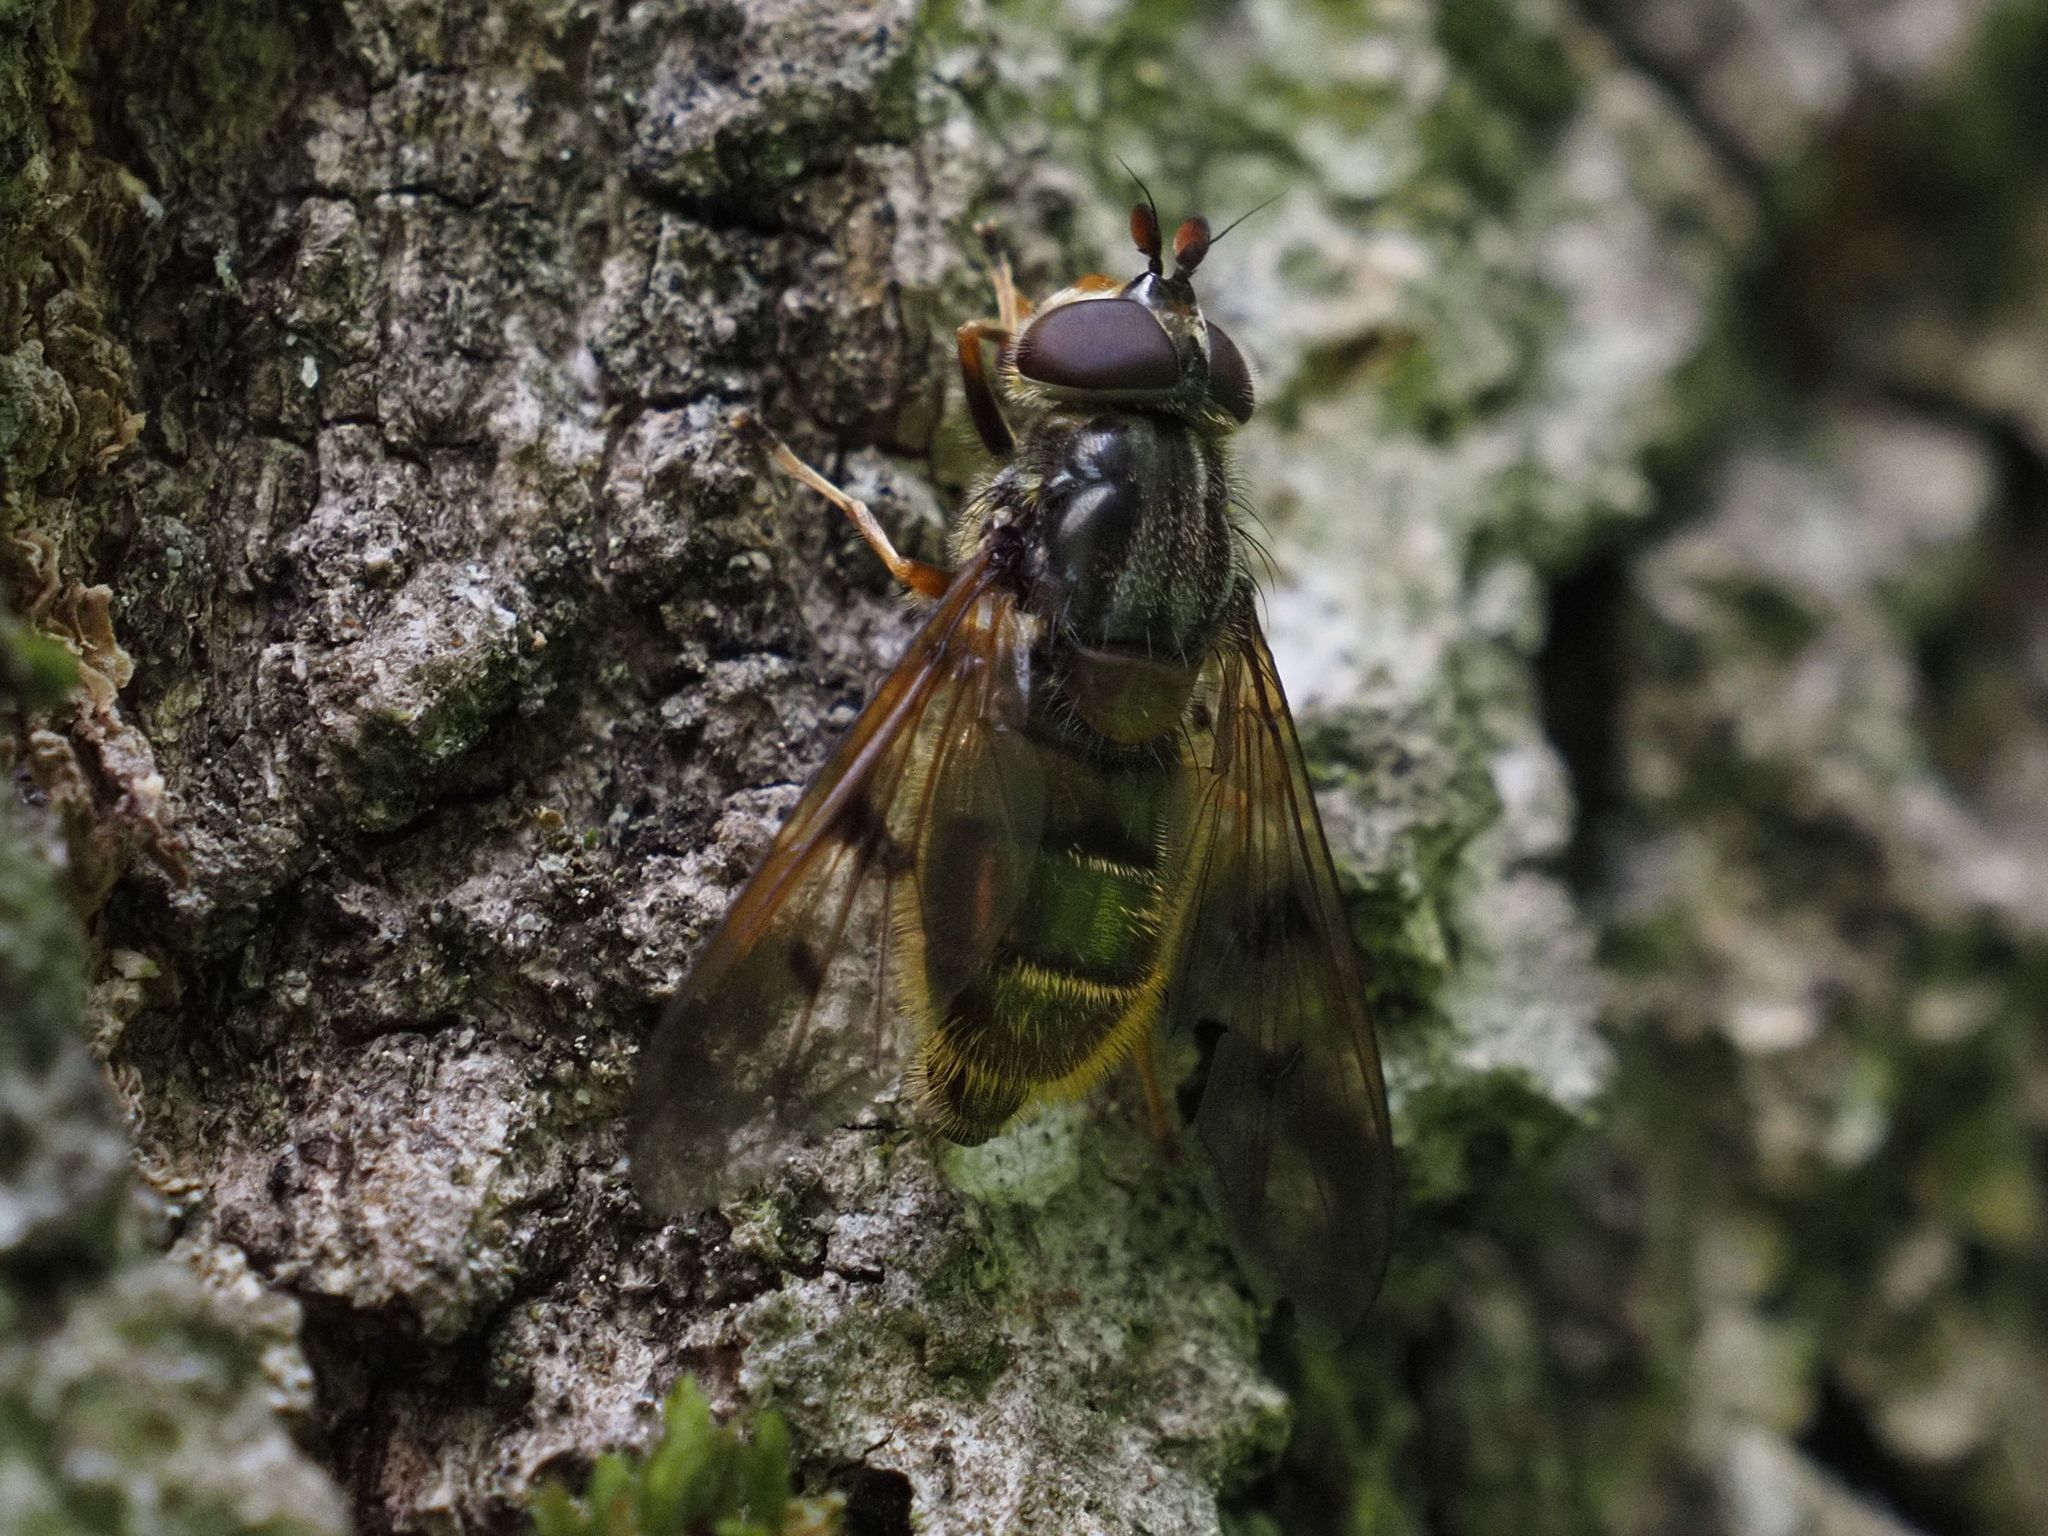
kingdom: Animalia
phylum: Arthropoda
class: Insecta
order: Diptera
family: Syrphidae
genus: Ferdinandea
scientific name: Ferdinandea cuprea
